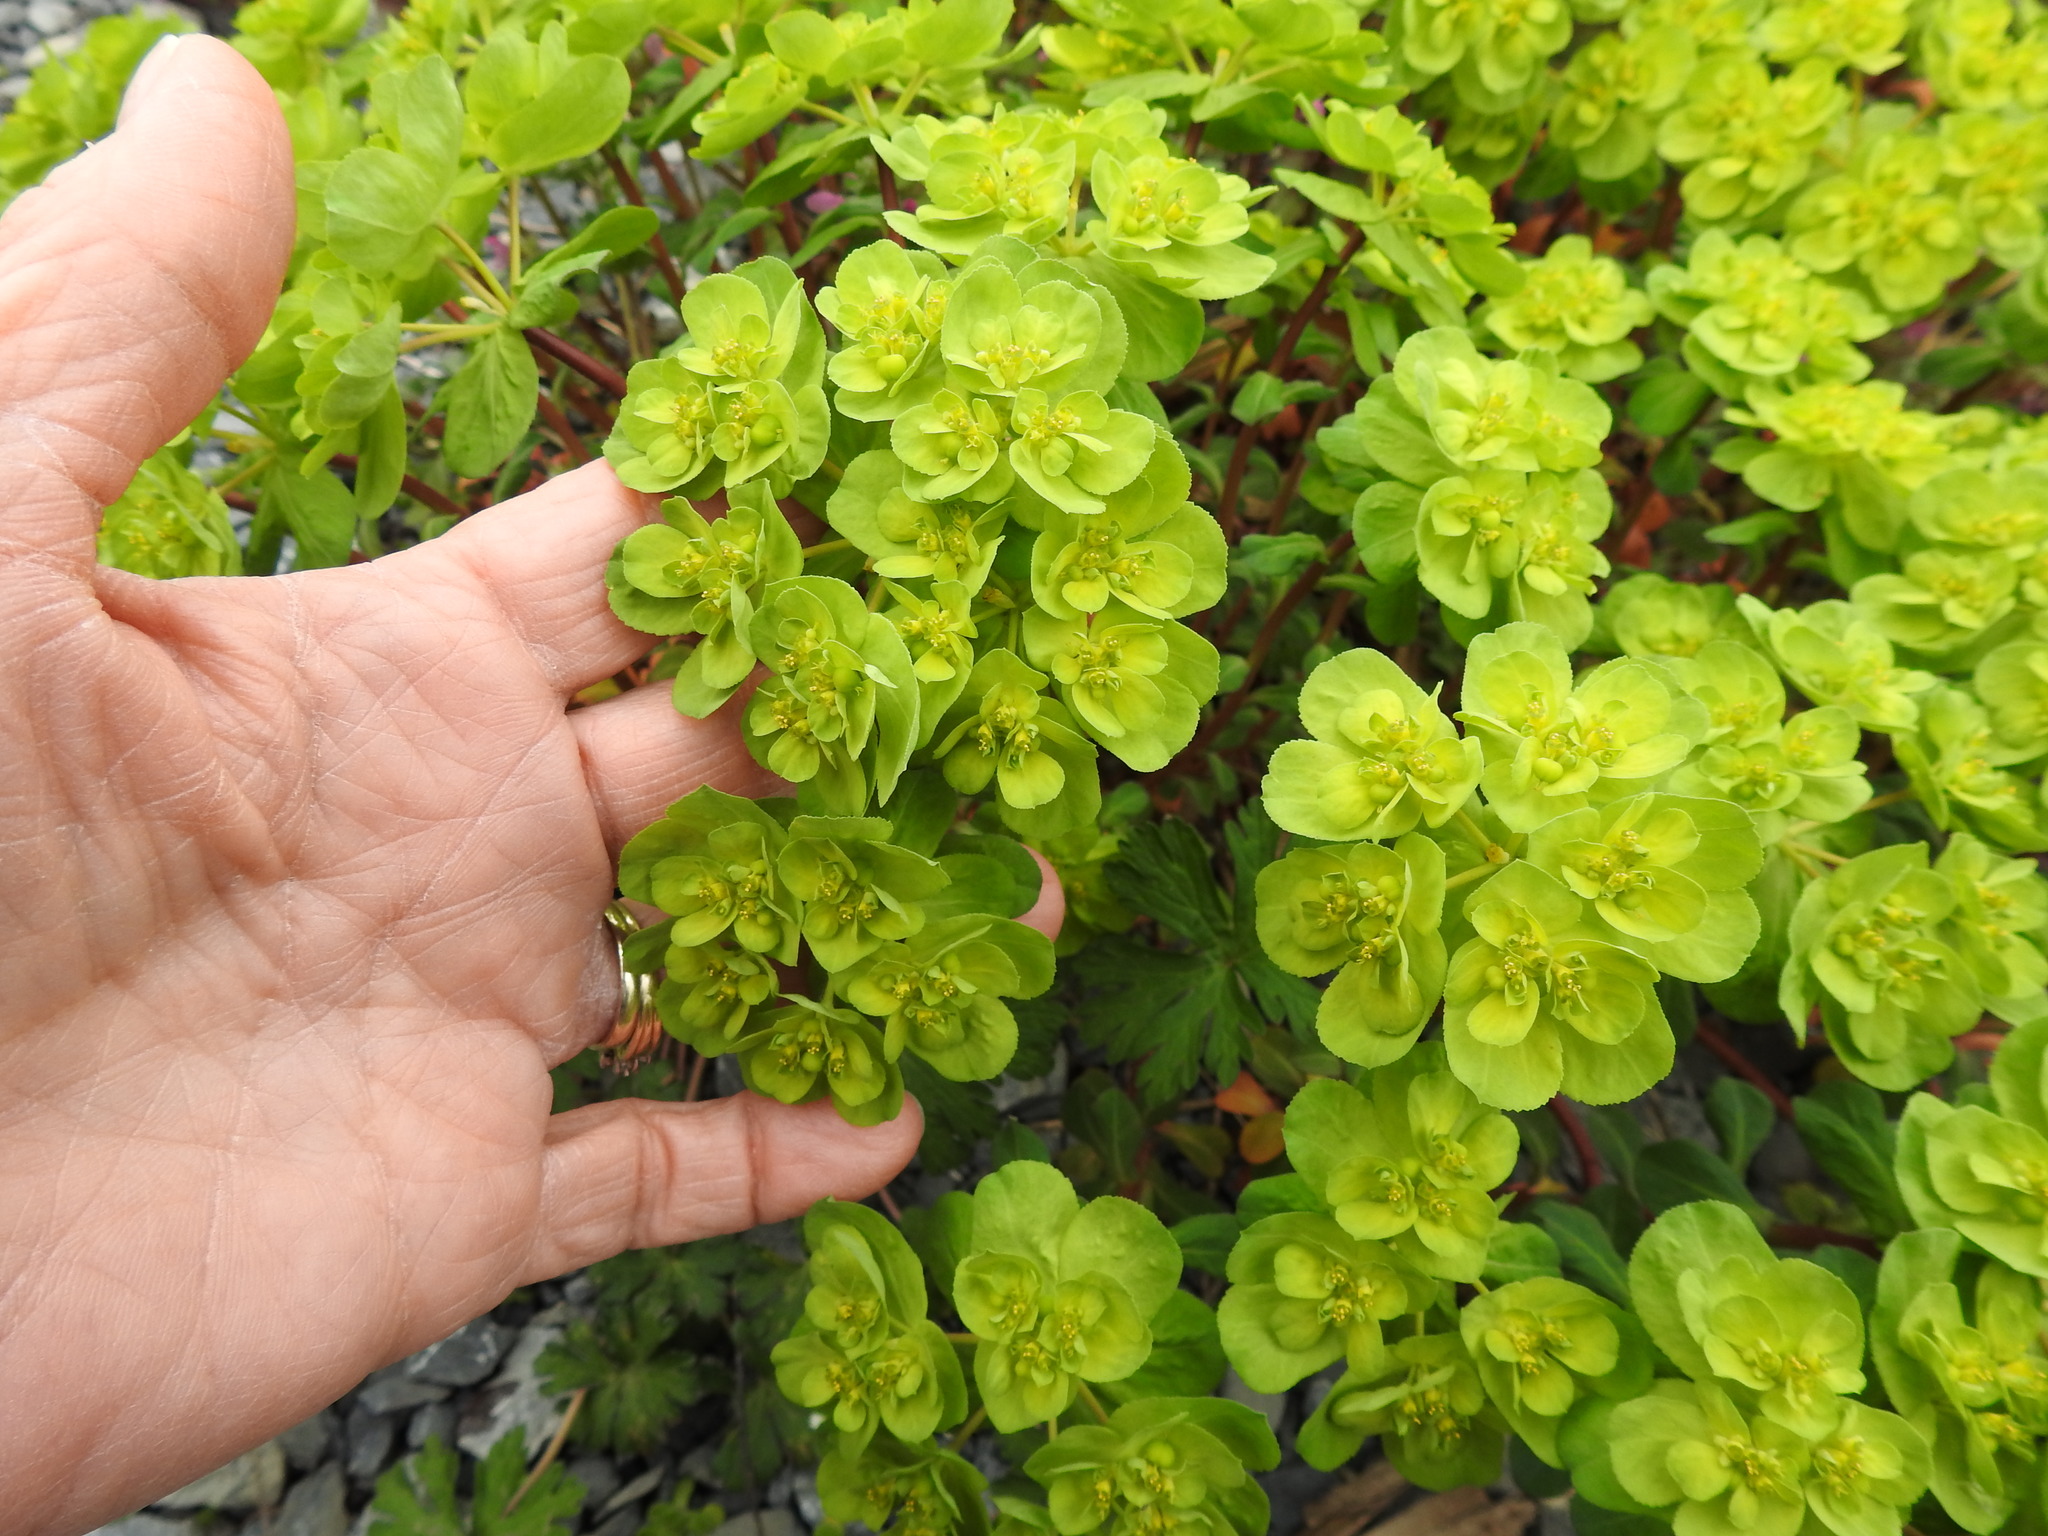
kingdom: Plantae
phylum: Tracheophyta
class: Magnoliopsida
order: Malpighiales
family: Euphorbiaceae
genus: Euphorbia
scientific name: Euphorbia helioscopia
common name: Sun spurge
